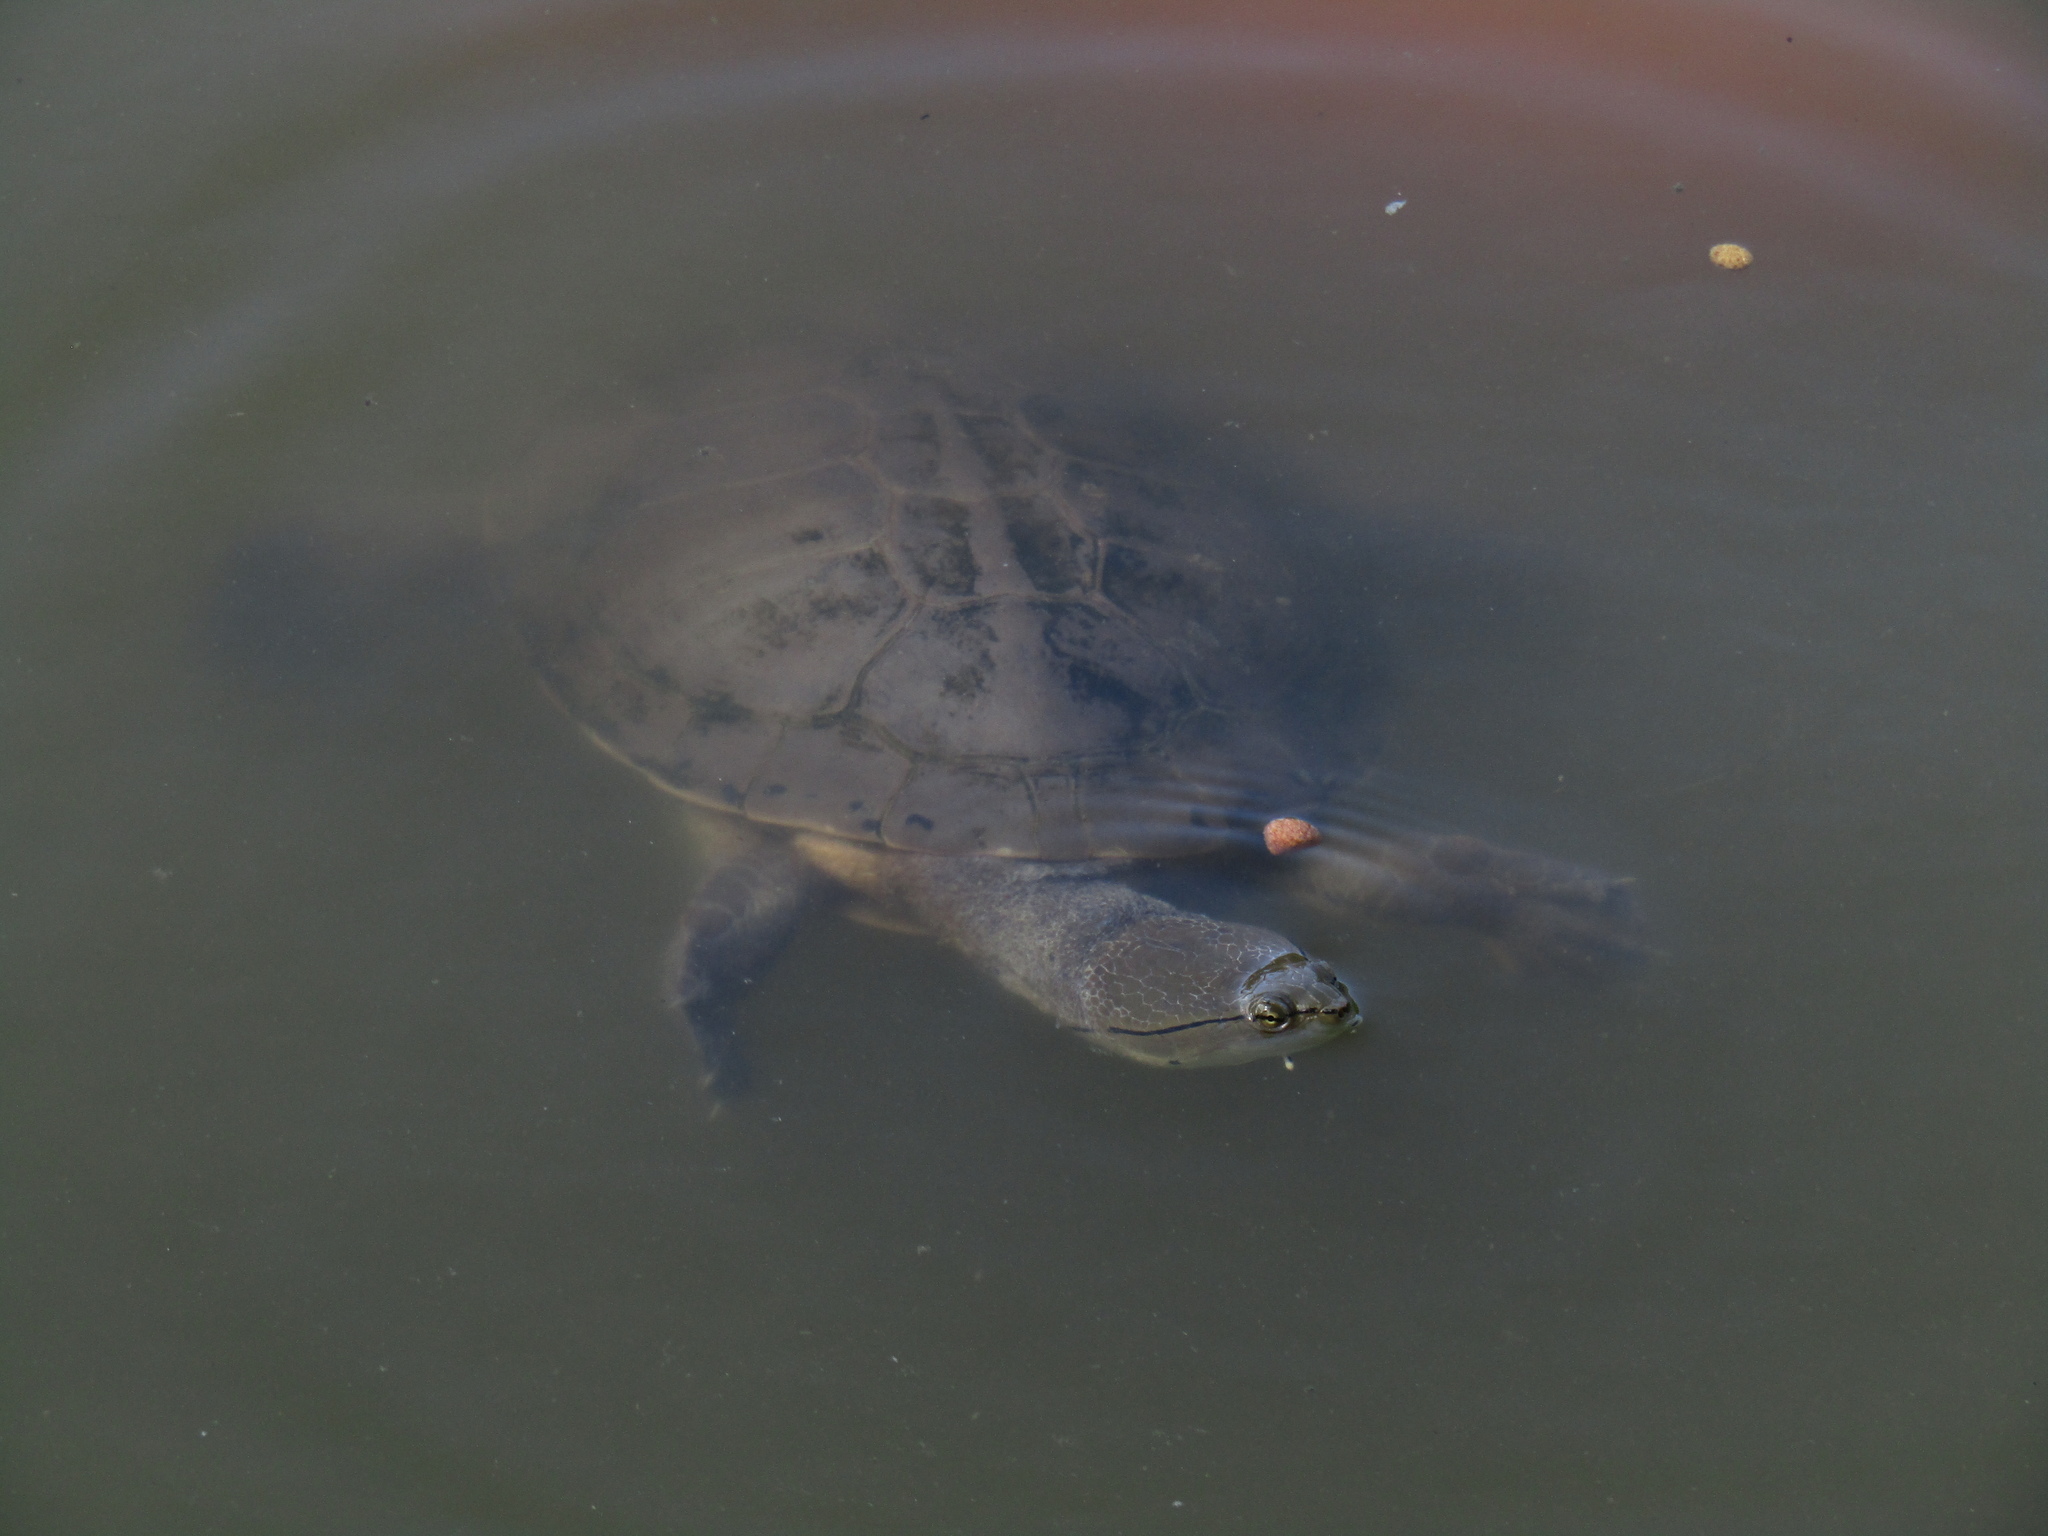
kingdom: Animalia
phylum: Chordata
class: Testudines
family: Chelidae
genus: Phrynops
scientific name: Phrynops hilarii
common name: Side-necked turtle of saint hillaire
